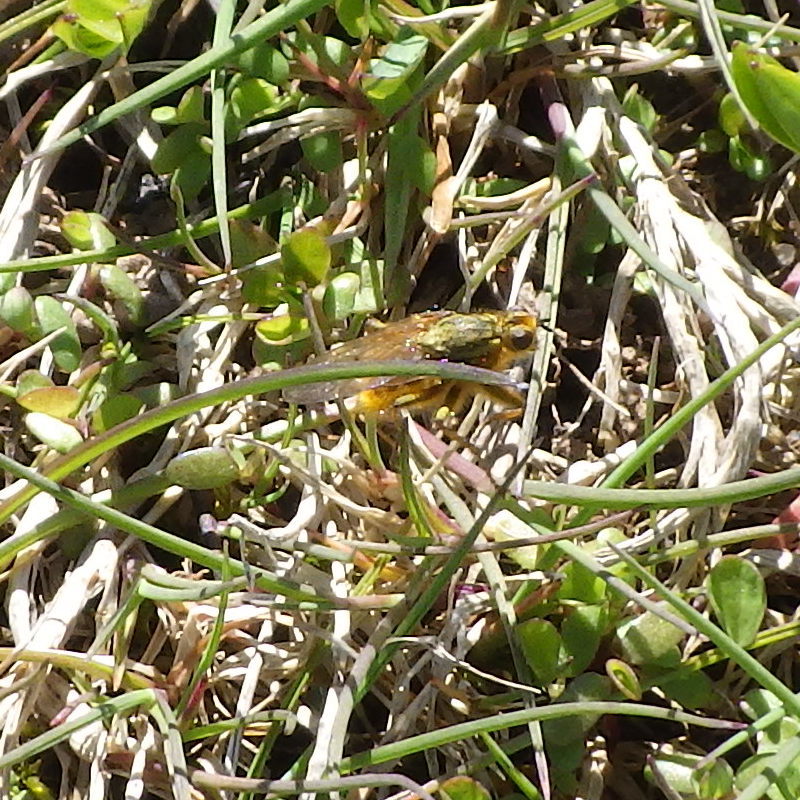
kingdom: Animalia
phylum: Arthropoda
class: Insecta
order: Diptera
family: Scathophagidae
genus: Scathophaga
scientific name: Scathophaga stercoraria
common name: Yellow dung fly
